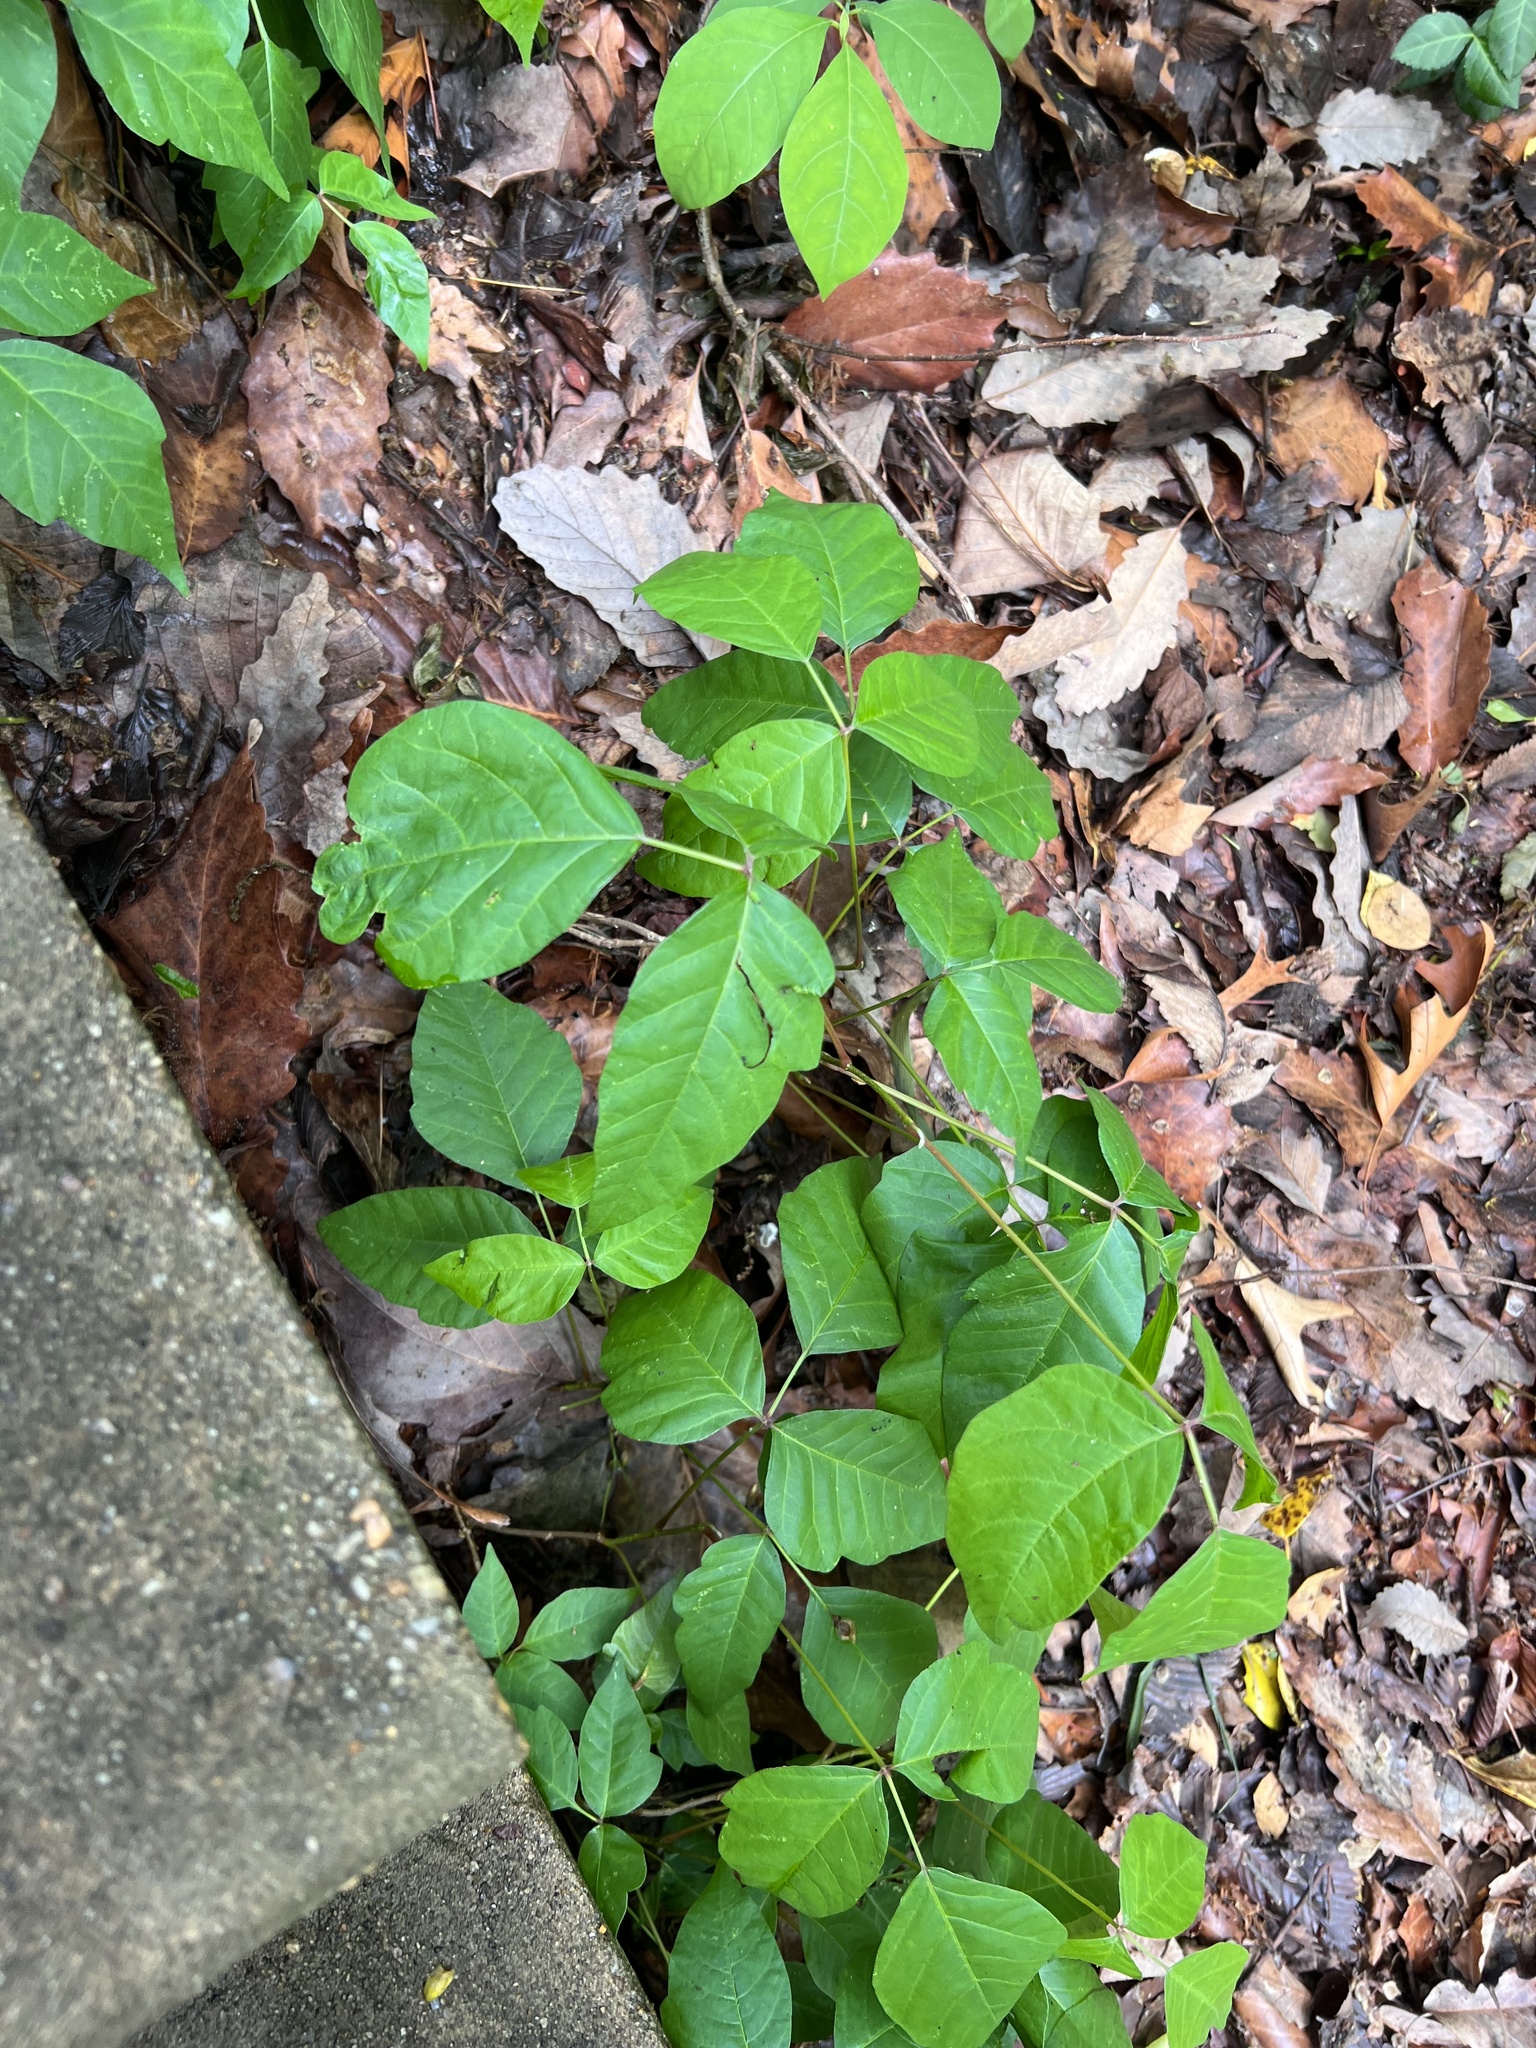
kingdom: Plantae
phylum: Tracheophyta
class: Magnoliopsida
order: Sapindales
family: Anacardiaceae
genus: Toxicodendron
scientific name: Toxicodendron radicans
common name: Poison ivy
